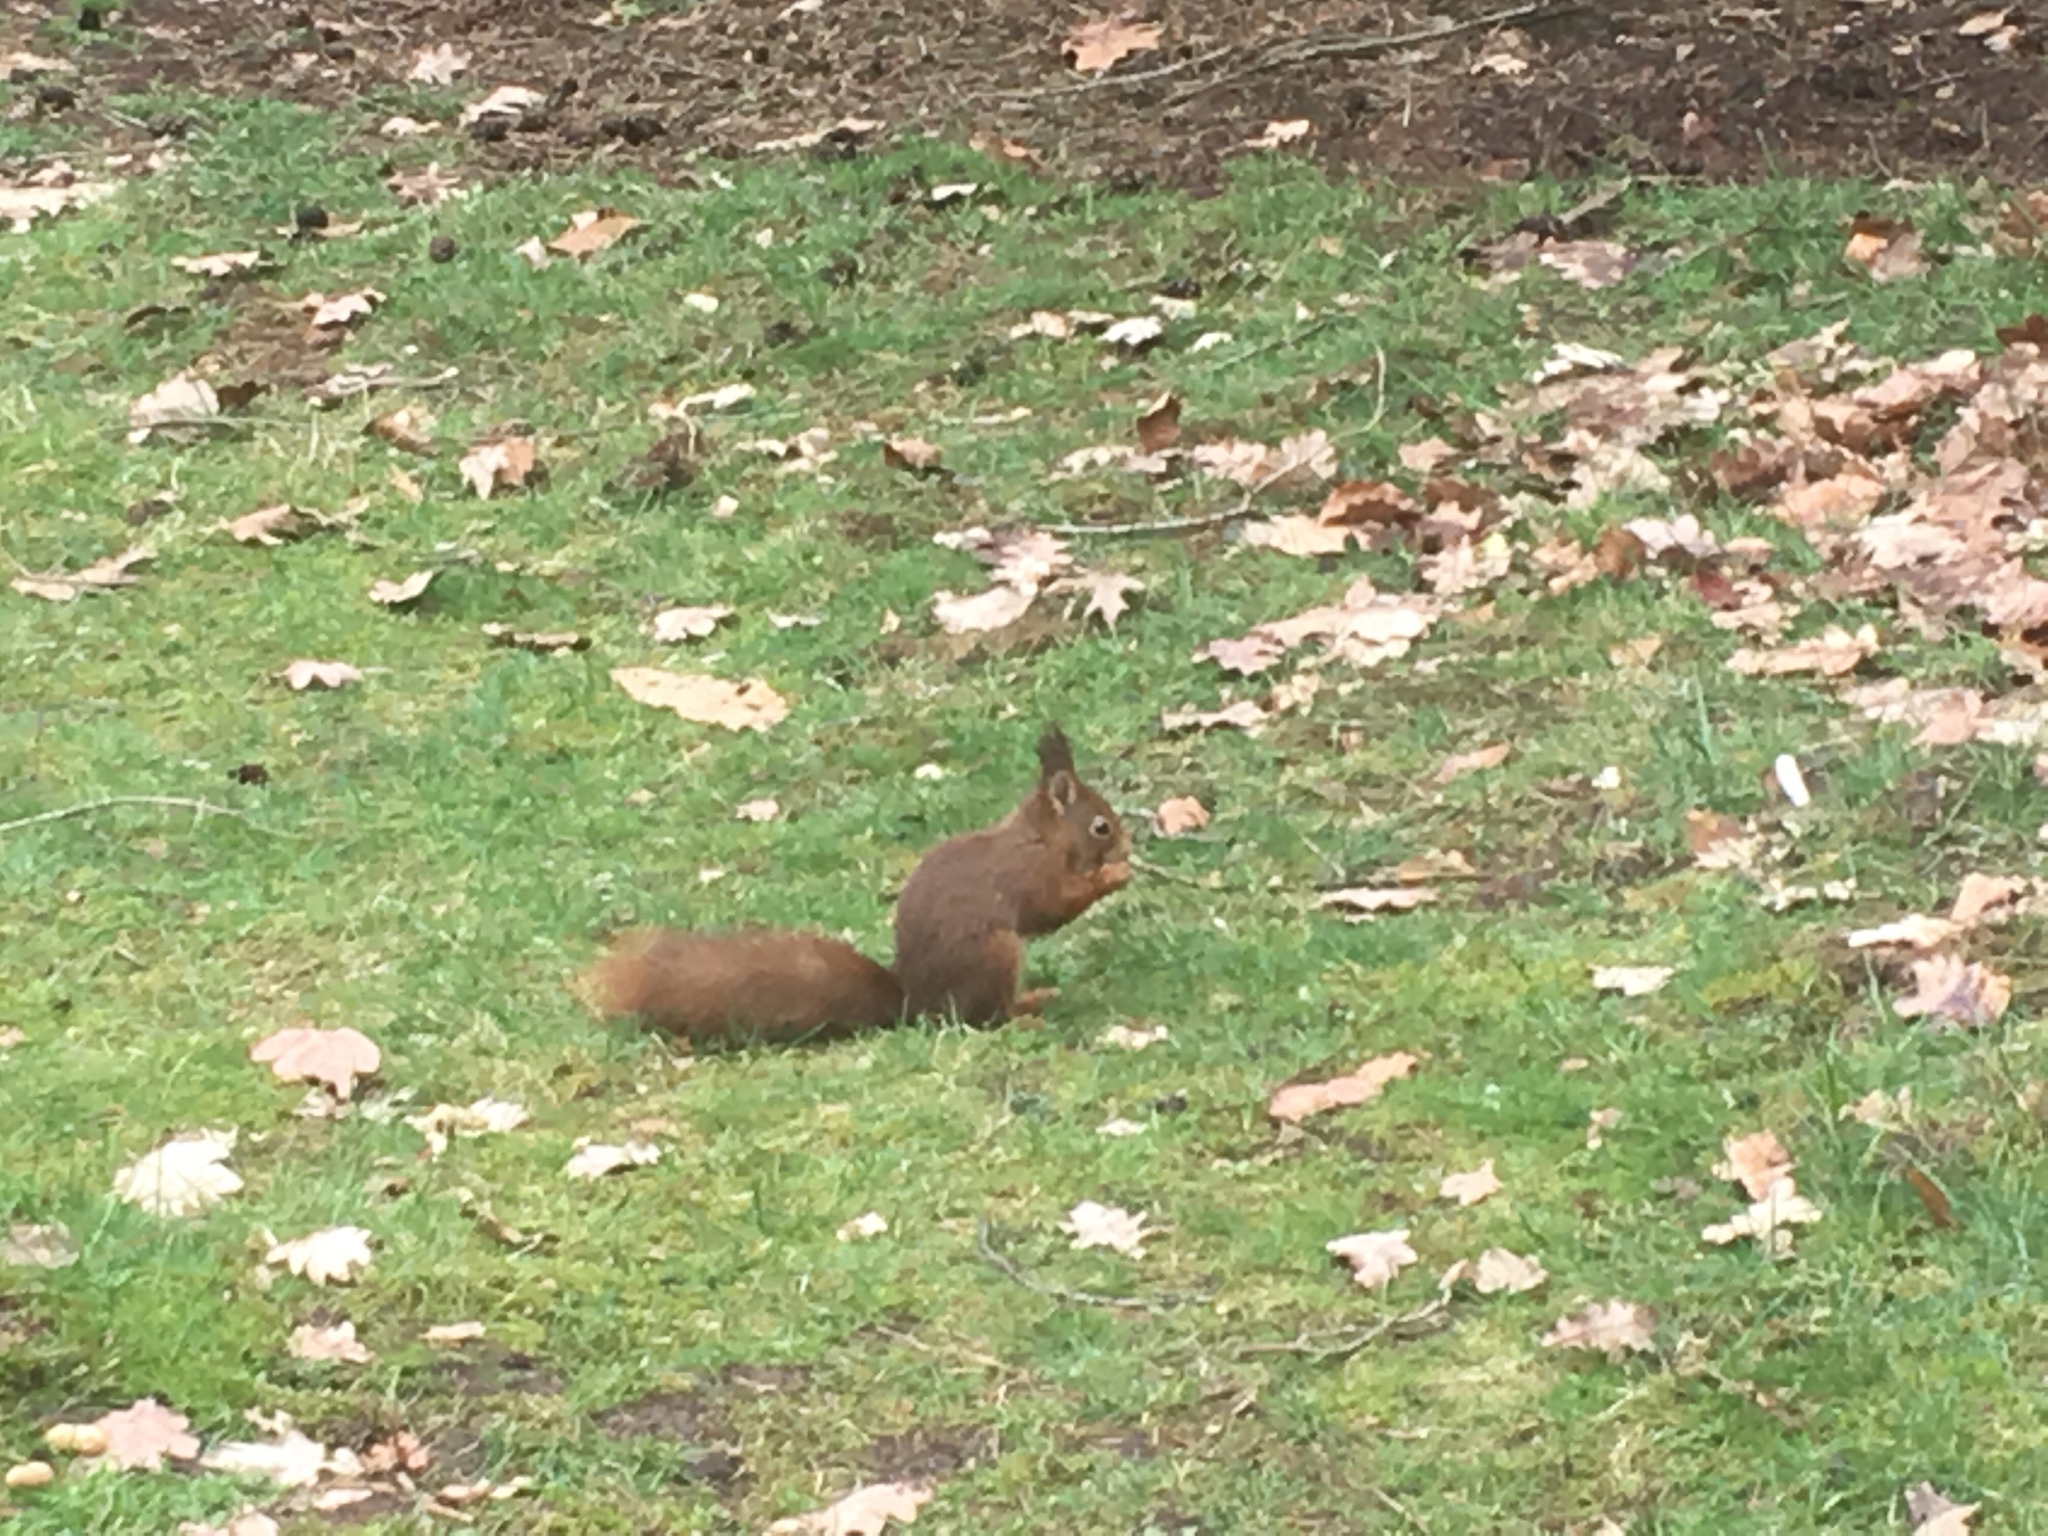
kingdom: Animalia
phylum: Chordata
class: Mammalia
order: Rodentia
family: Sciuridae
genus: Sciurus
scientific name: Sciurus vulgaris
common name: Eurasian red squirrel
